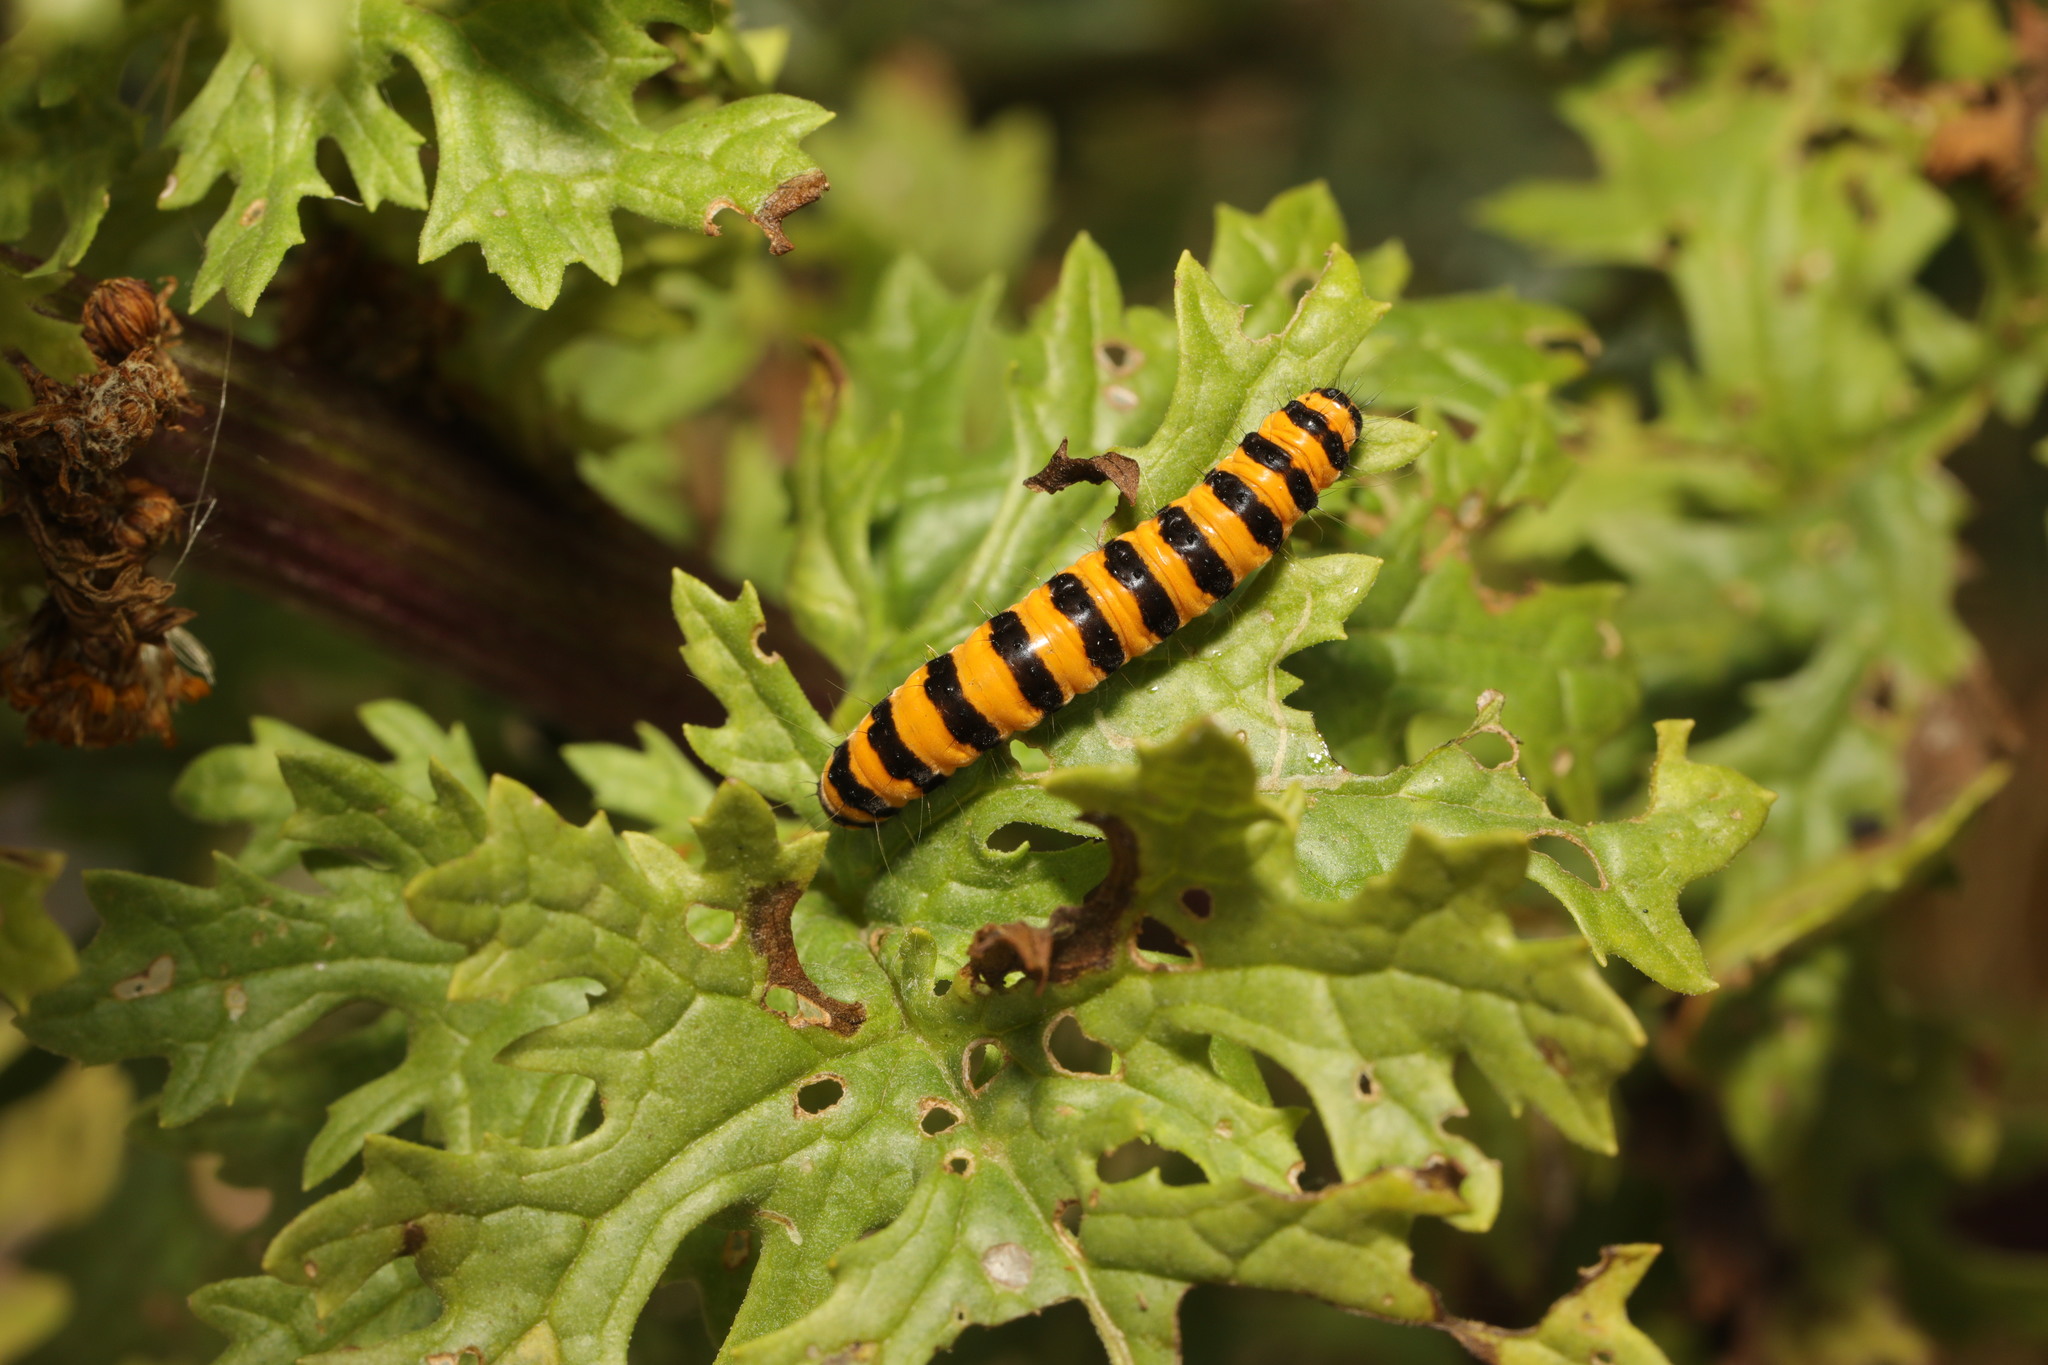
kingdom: Animalia
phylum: Arthropoda
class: Insecta
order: Lepidoptera
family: Erebidae
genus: Tyria
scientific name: Tyria jacobaeae
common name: Cinnabar
